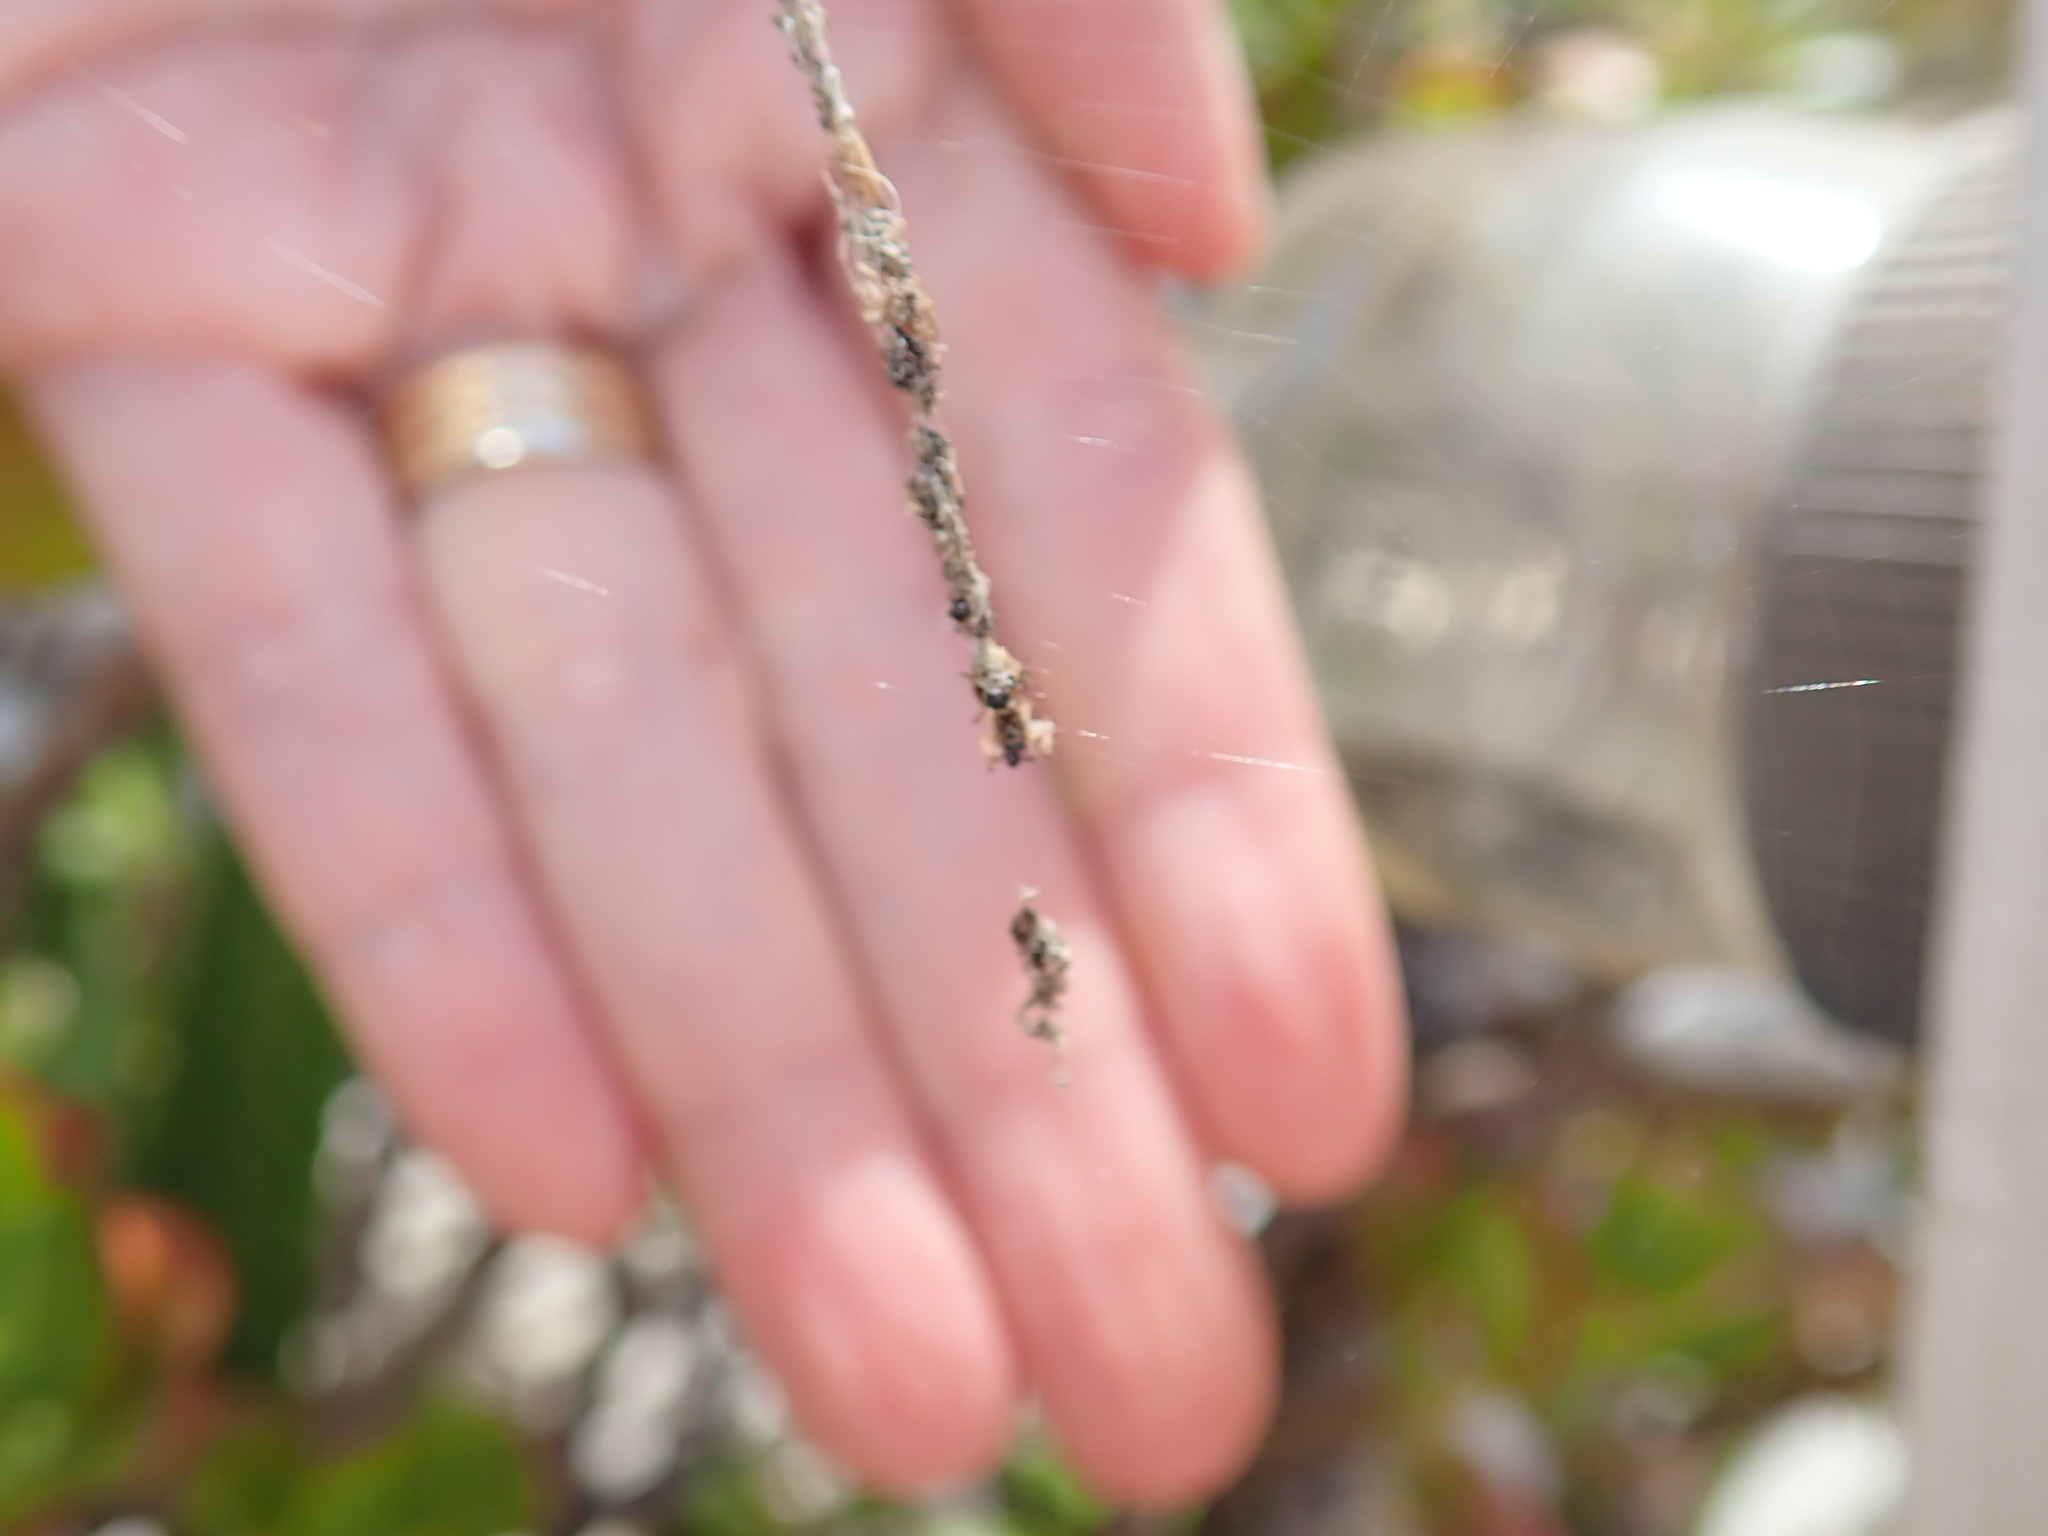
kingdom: Animalia
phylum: Arthropoda
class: Arachnida
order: Araneae
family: Araneidae
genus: Cyclosa
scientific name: Cyclosa turbinata
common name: Orb weavers
